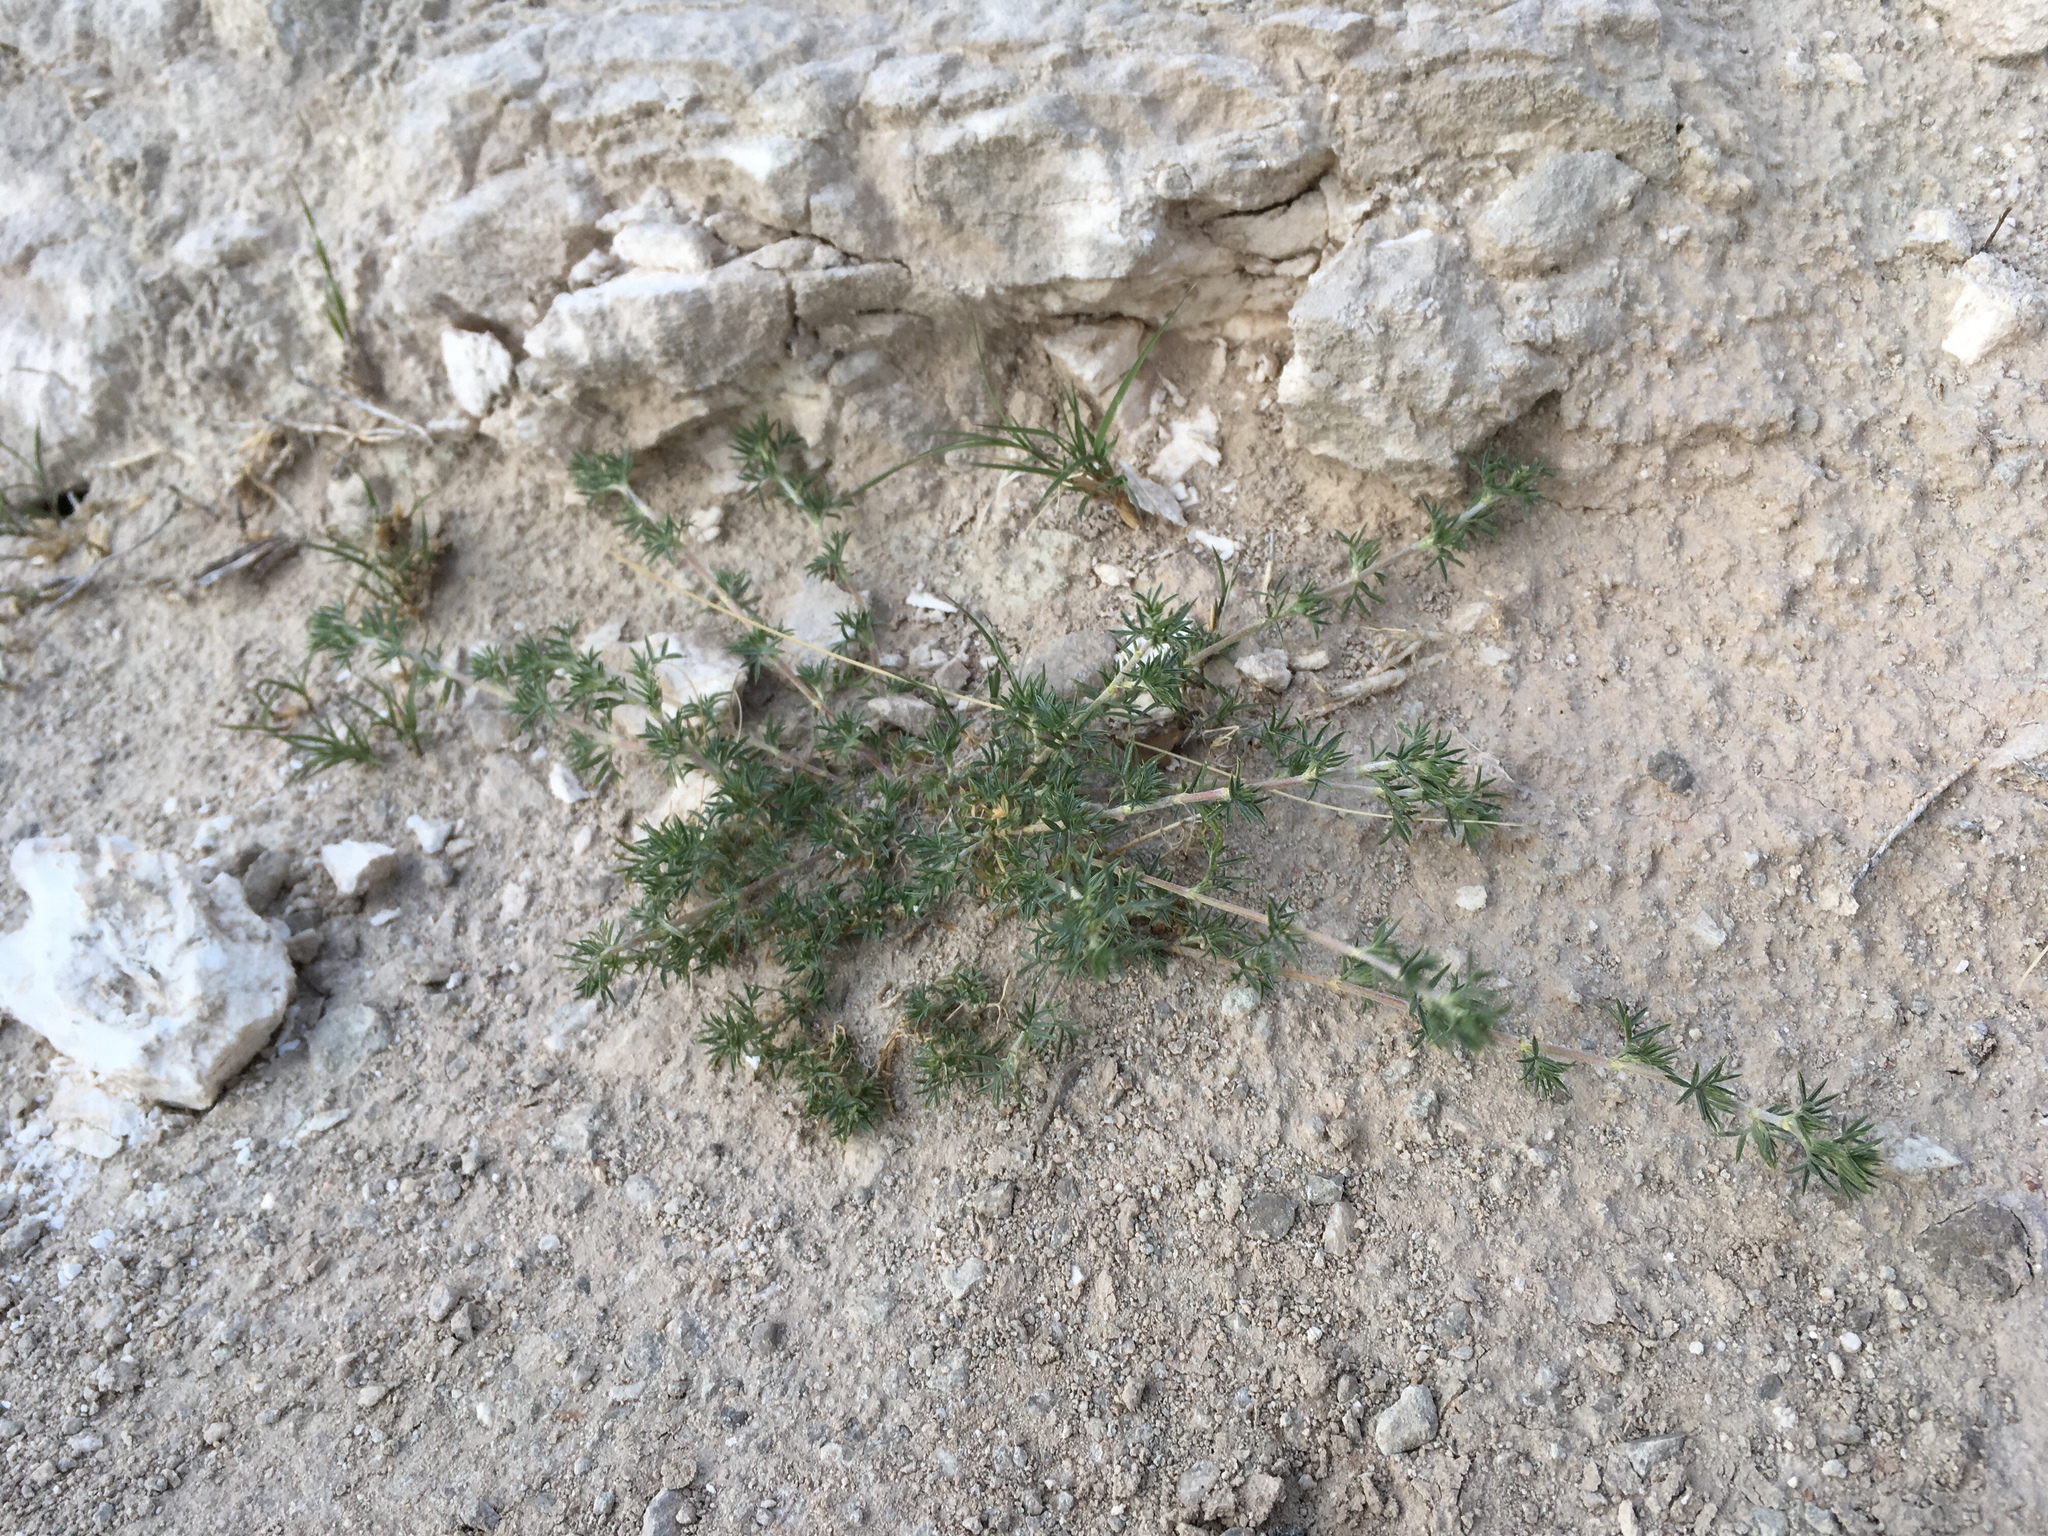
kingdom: Plantae
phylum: Tracheophyta
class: Magnoliopsida
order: Fabales
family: Fabaceae
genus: Astragalus
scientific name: Astragalus kentrophyta
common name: Prickly milk-vetch
